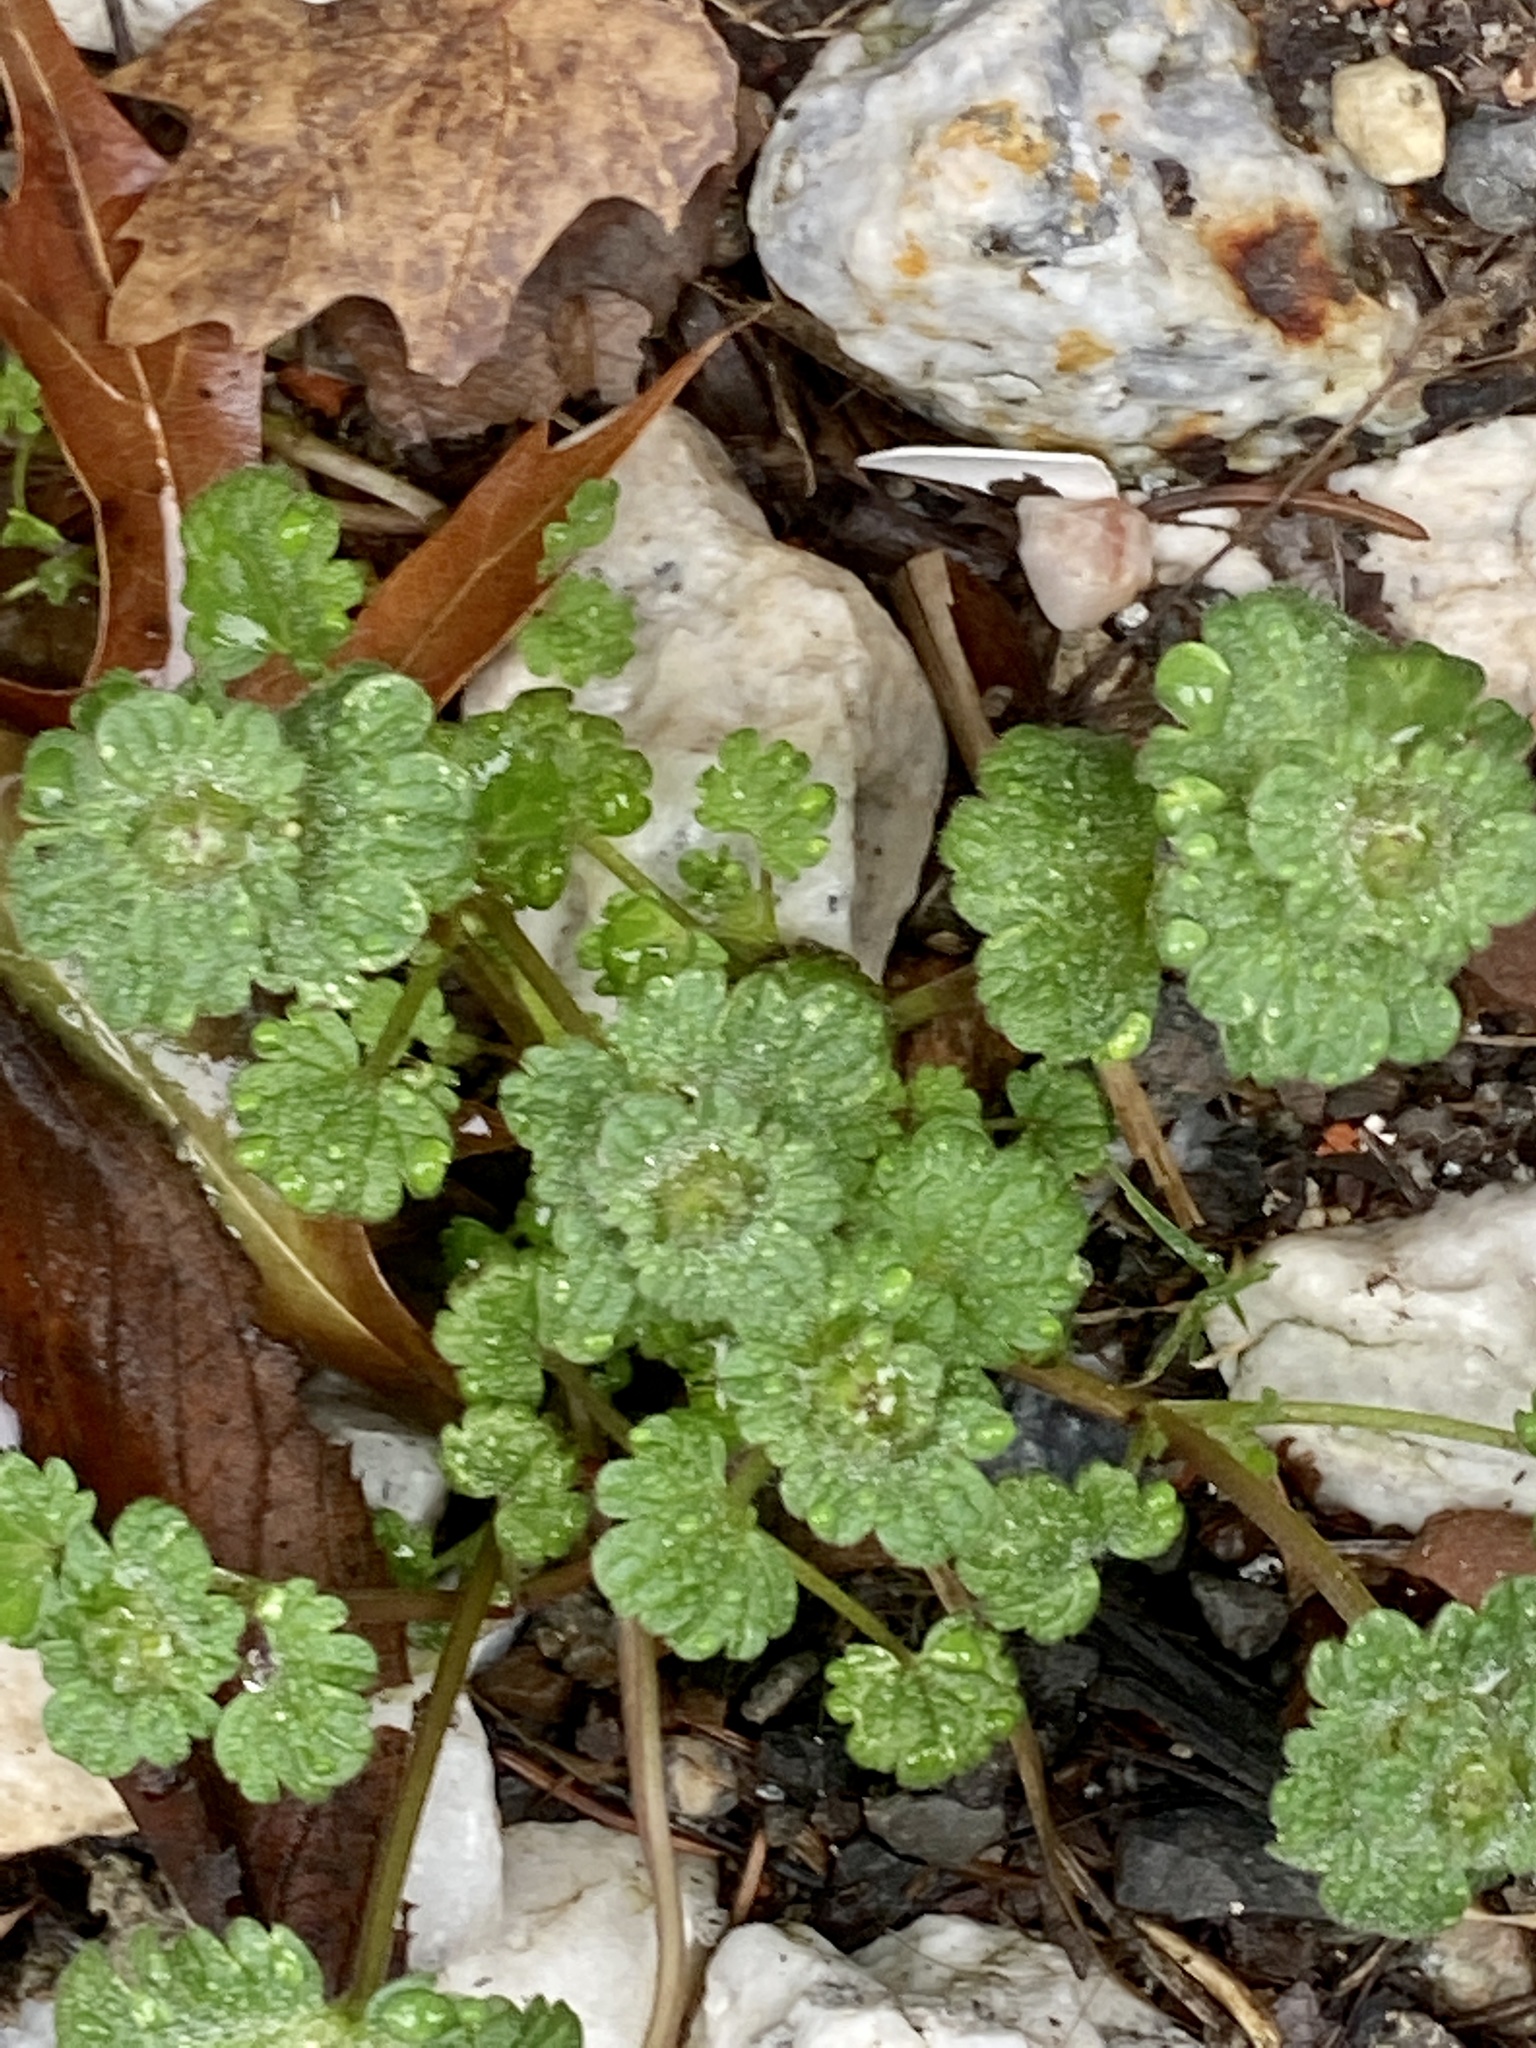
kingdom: Plantae
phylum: Tracheophyta
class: Magnoliopsida
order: Lamiales
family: Lamiaceae
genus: Lamium
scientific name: Lamium amplexicaule
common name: Henbit dead-nettle
